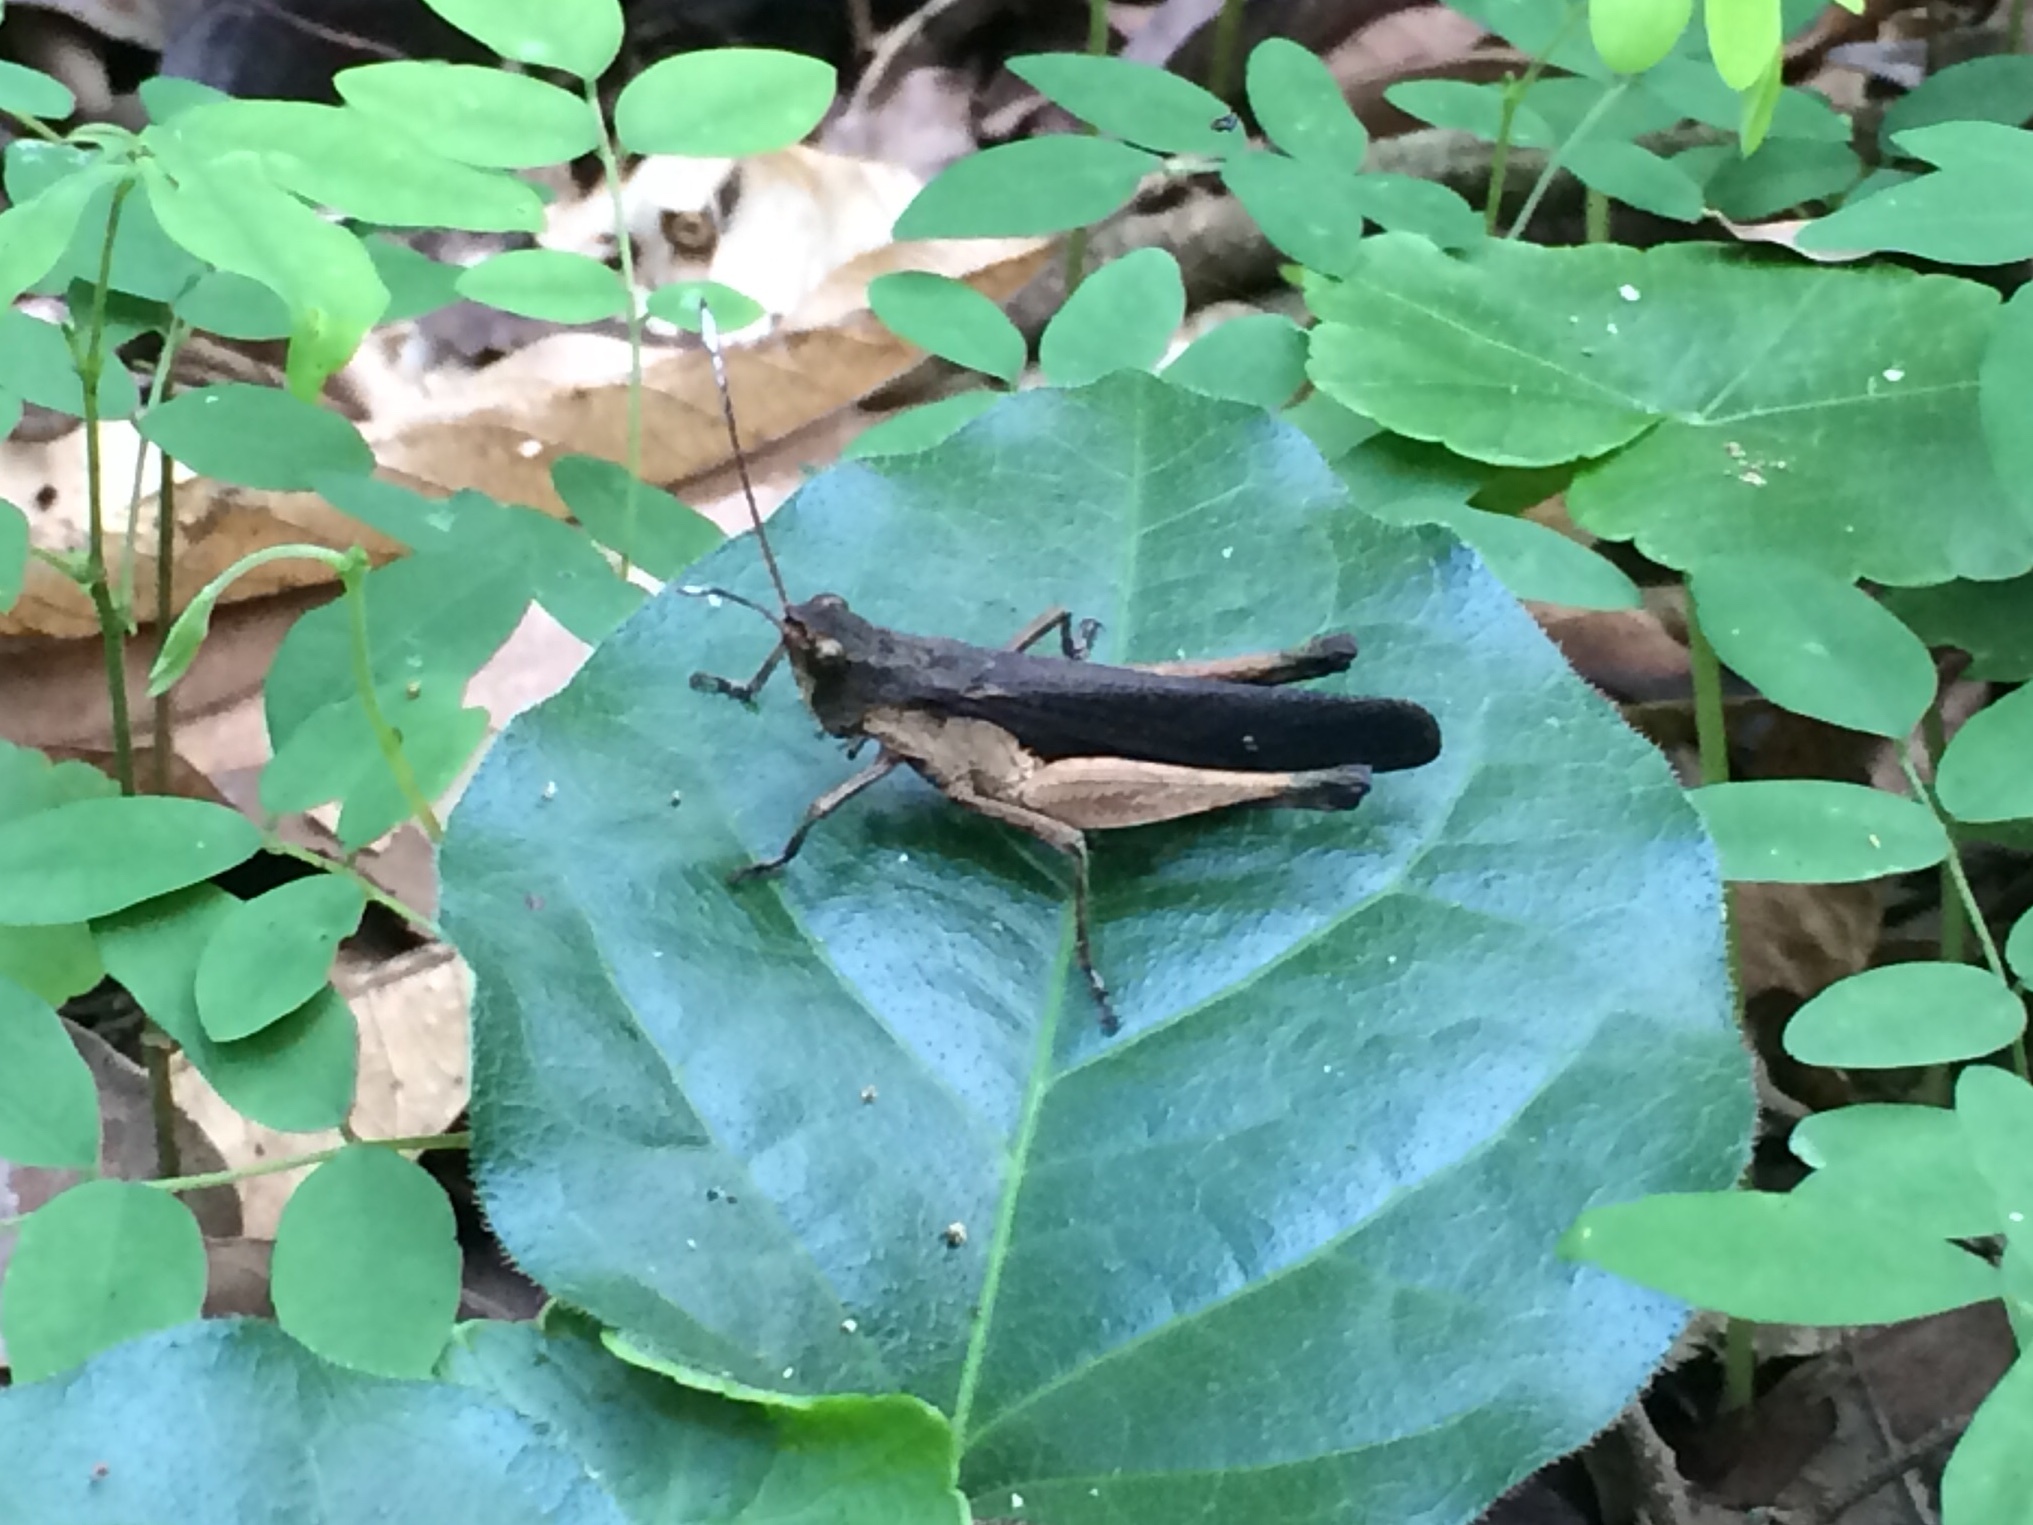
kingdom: Animalia
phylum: Arthropoda
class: Insecta
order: Orthoptera
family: Acrididae
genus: Peruvia
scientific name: Peruvia nigromarginata
